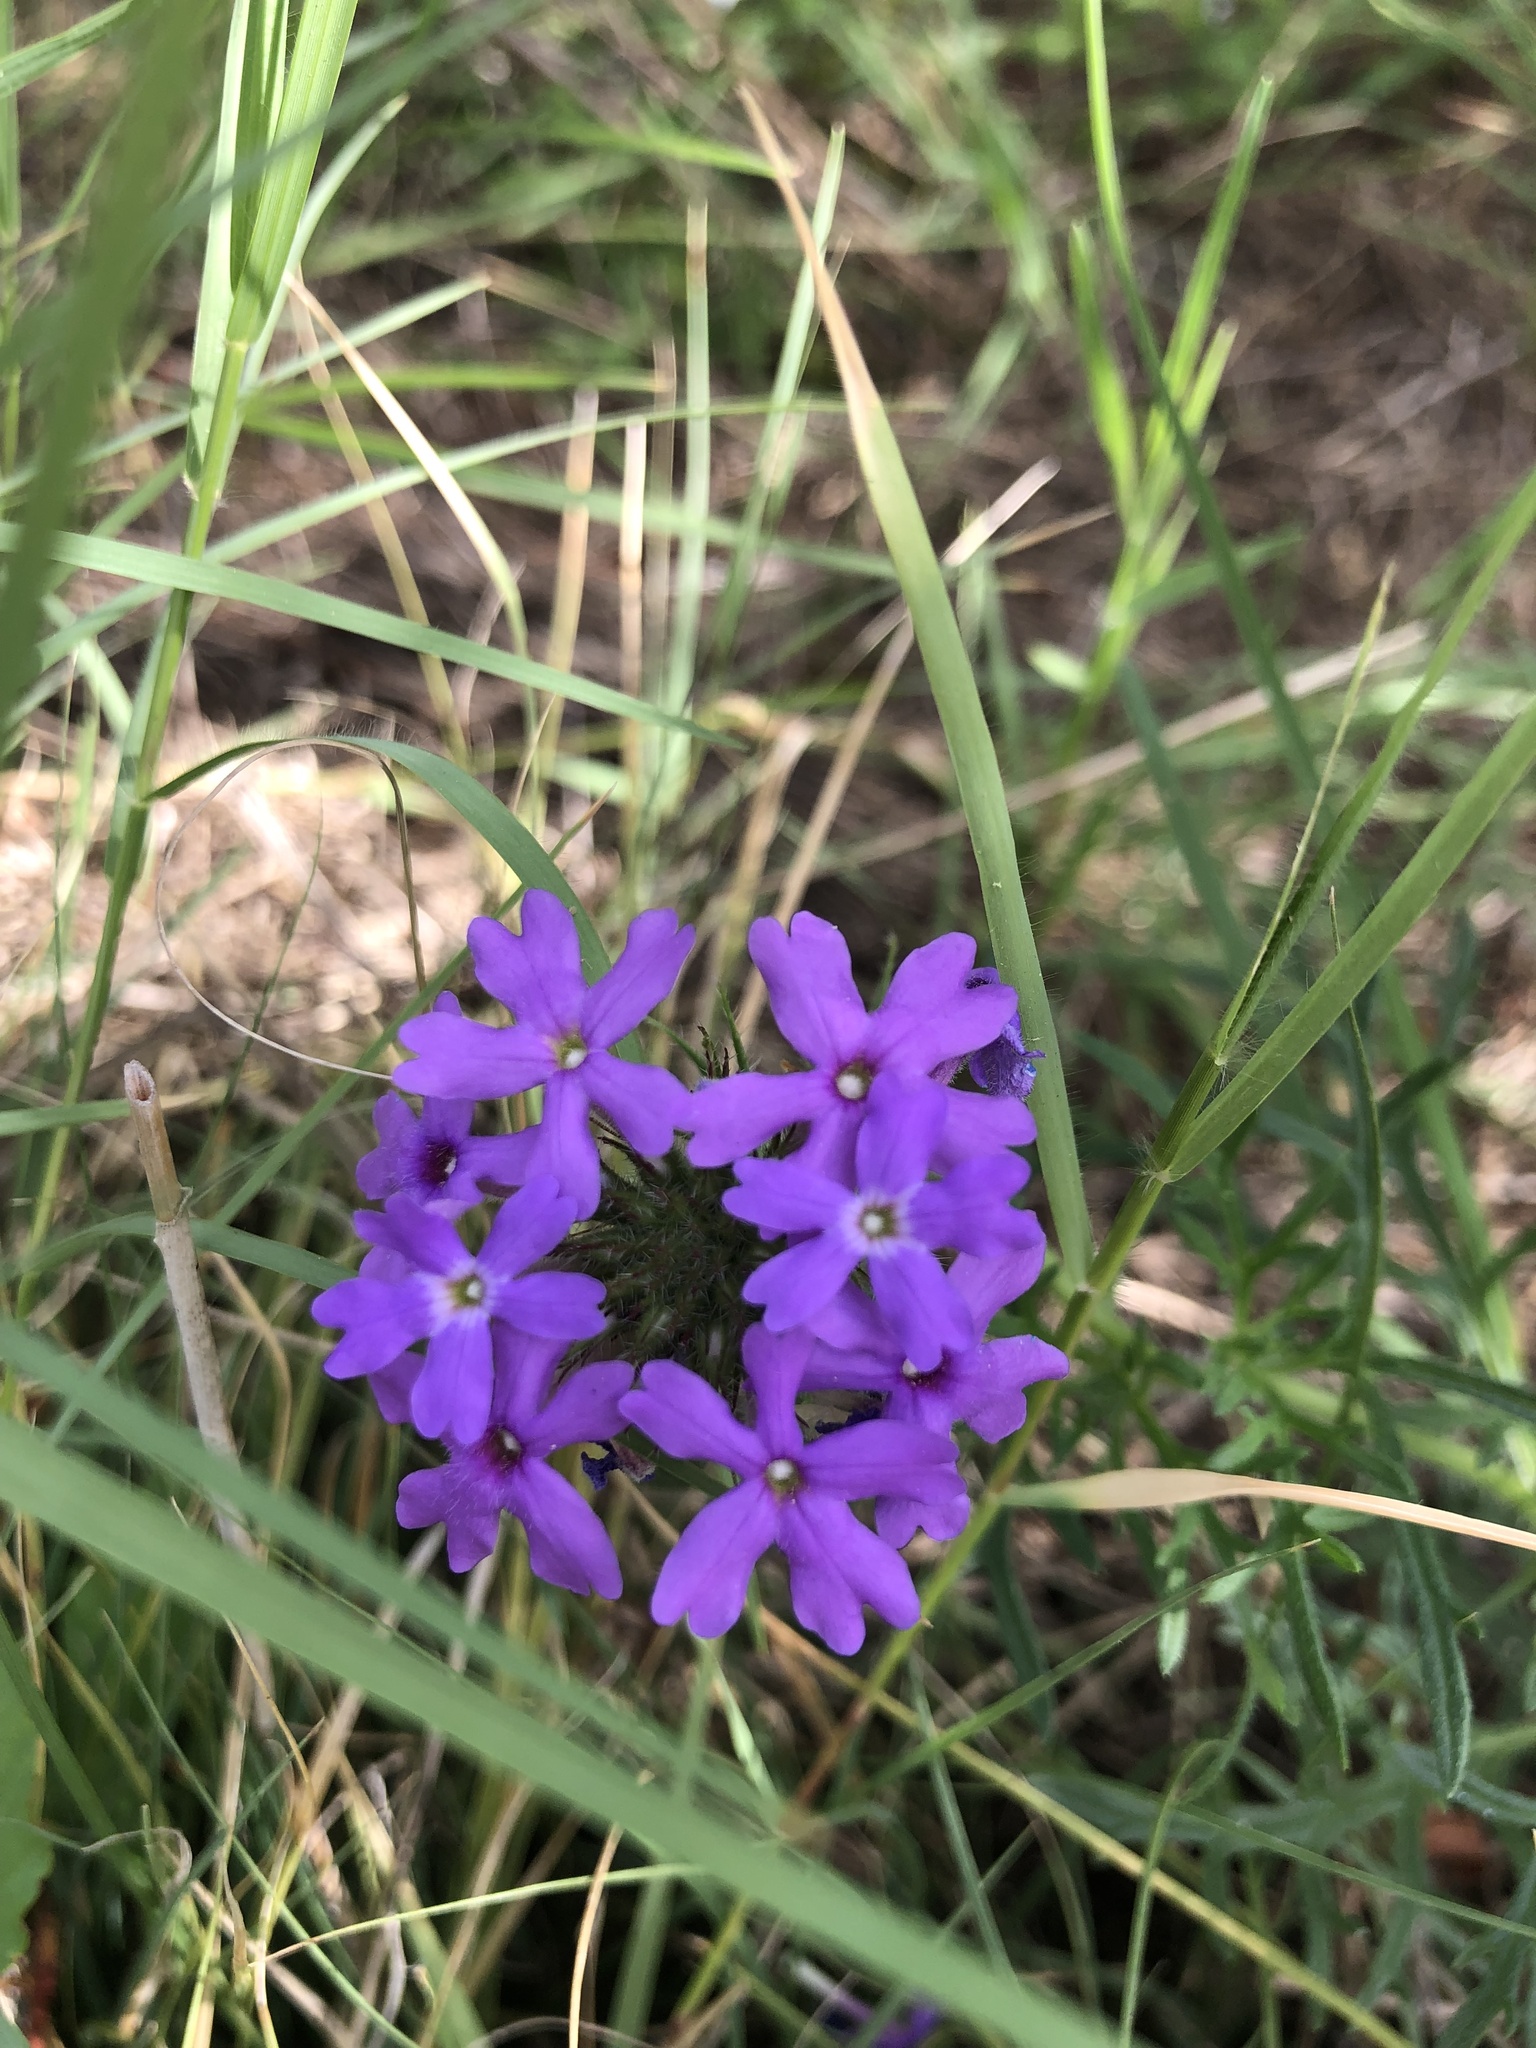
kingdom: Plantae
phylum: Tracheophyta
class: Magnoliopsida
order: Lamiales
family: Verbenaceae
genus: Verbena
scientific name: Verbena bipinnatifida
